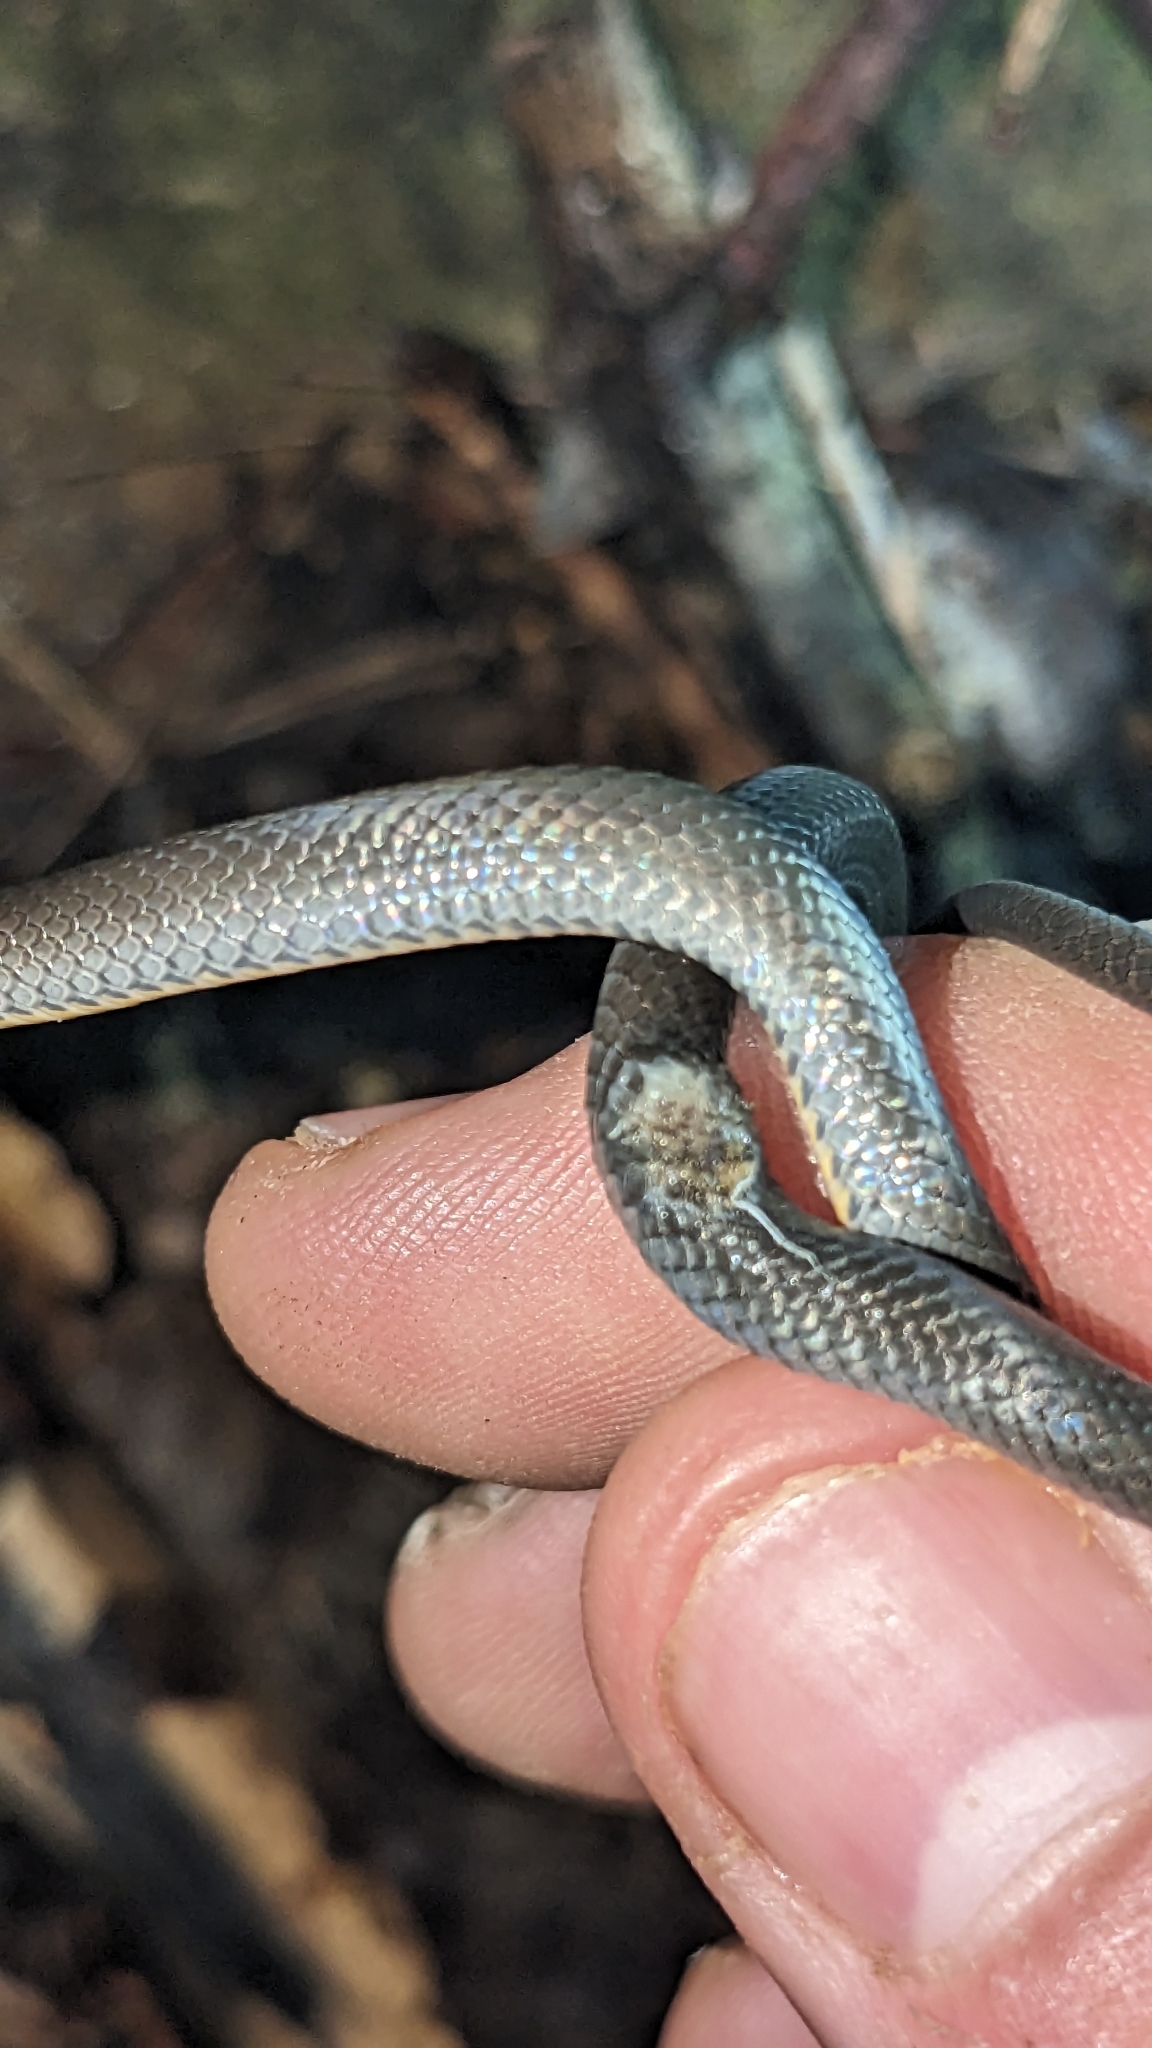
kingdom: Animalia
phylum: Chordata
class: Squamata
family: Colubridae
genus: Diadophis
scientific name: Diadophis punctatus
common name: Ringneck snake
